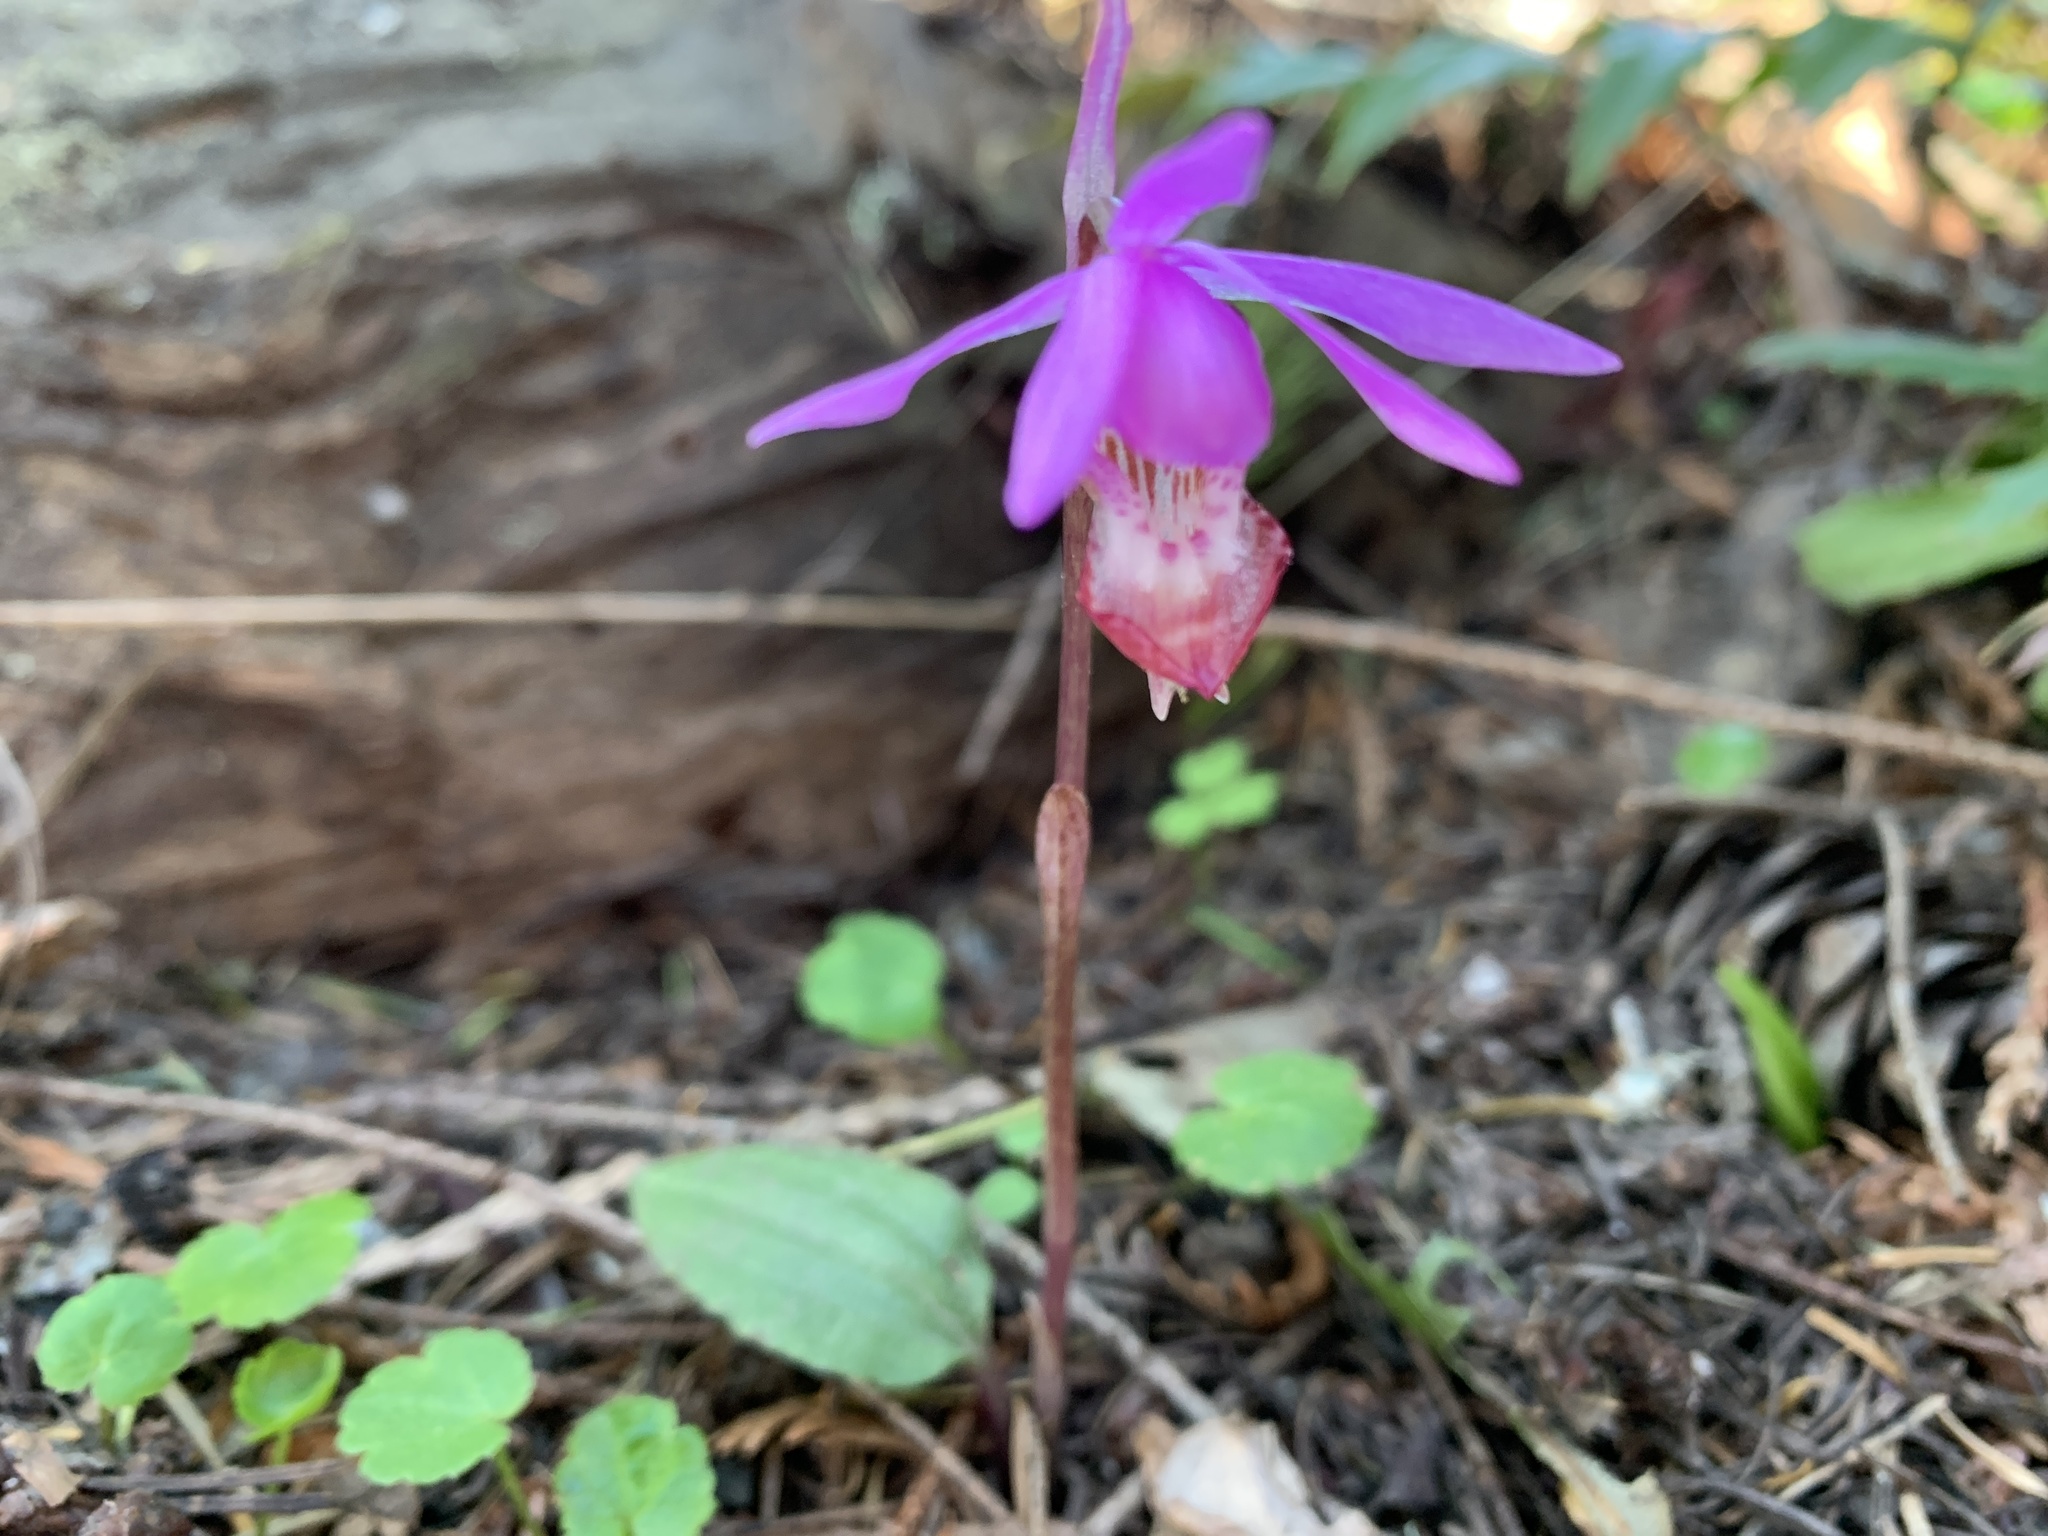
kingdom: Plantae
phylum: Tracheophyta
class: Liliopsida
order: Asparagales
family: Orchidaceae
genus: Calypso
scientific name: Calypso bulbosa
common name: Calypso
